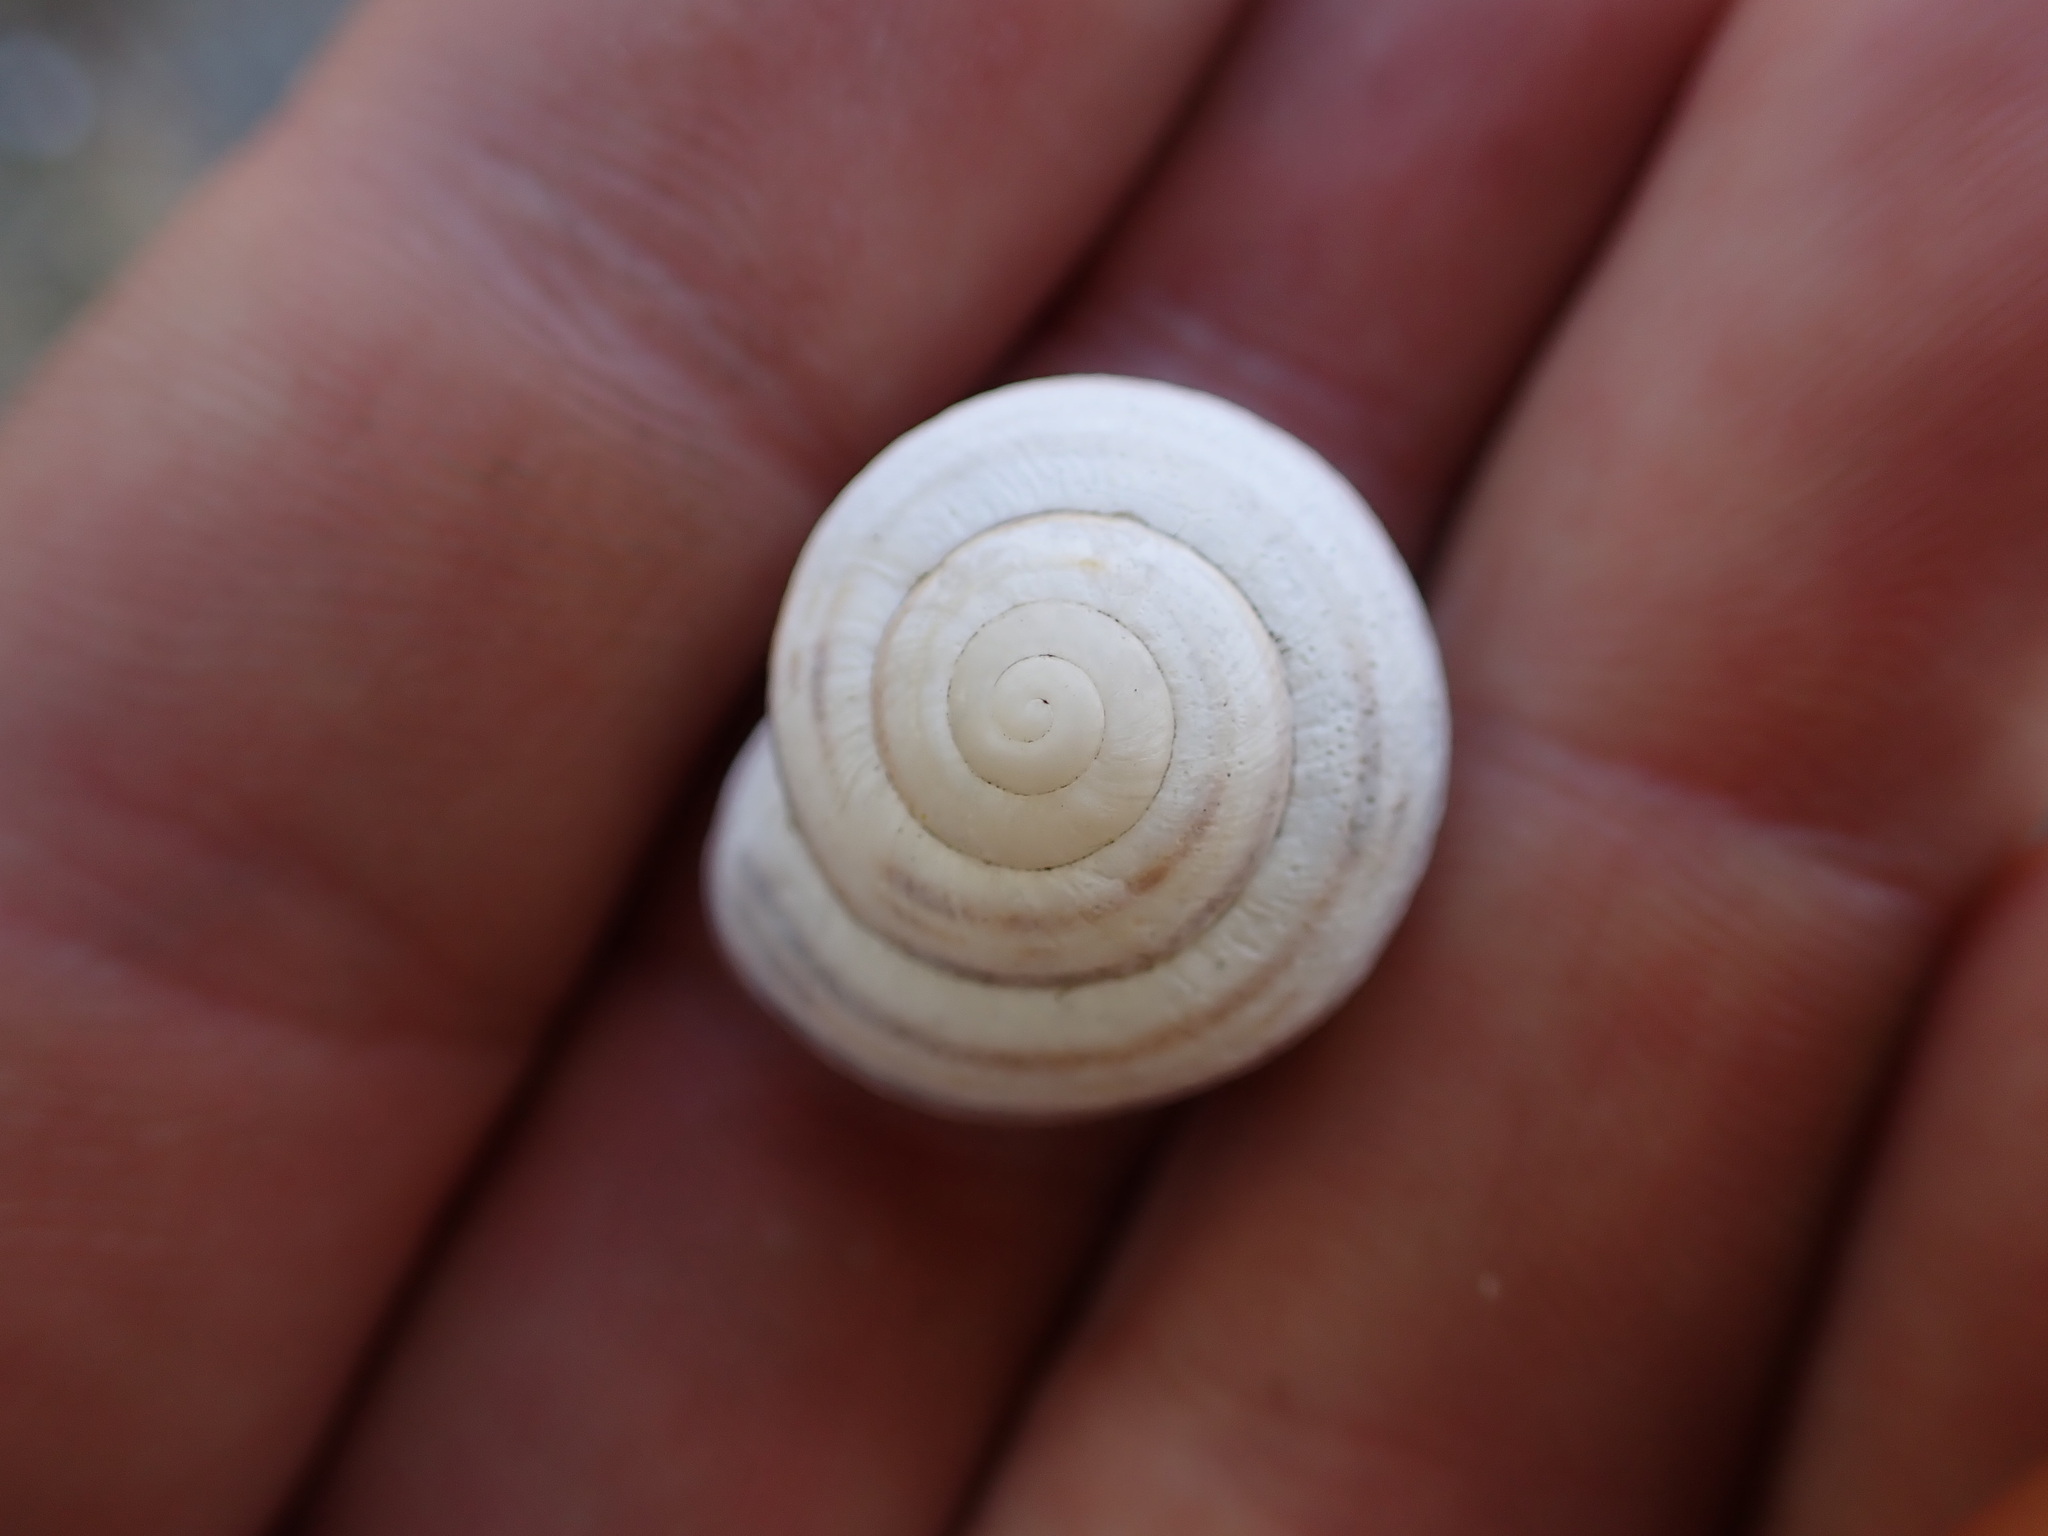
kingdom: Animalia
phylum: Mollusca
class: Gastropoda
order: Stylommatophora
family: Helicidae
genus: Cepaea
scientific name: Cepaea nemoralis
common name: Grovesnail
